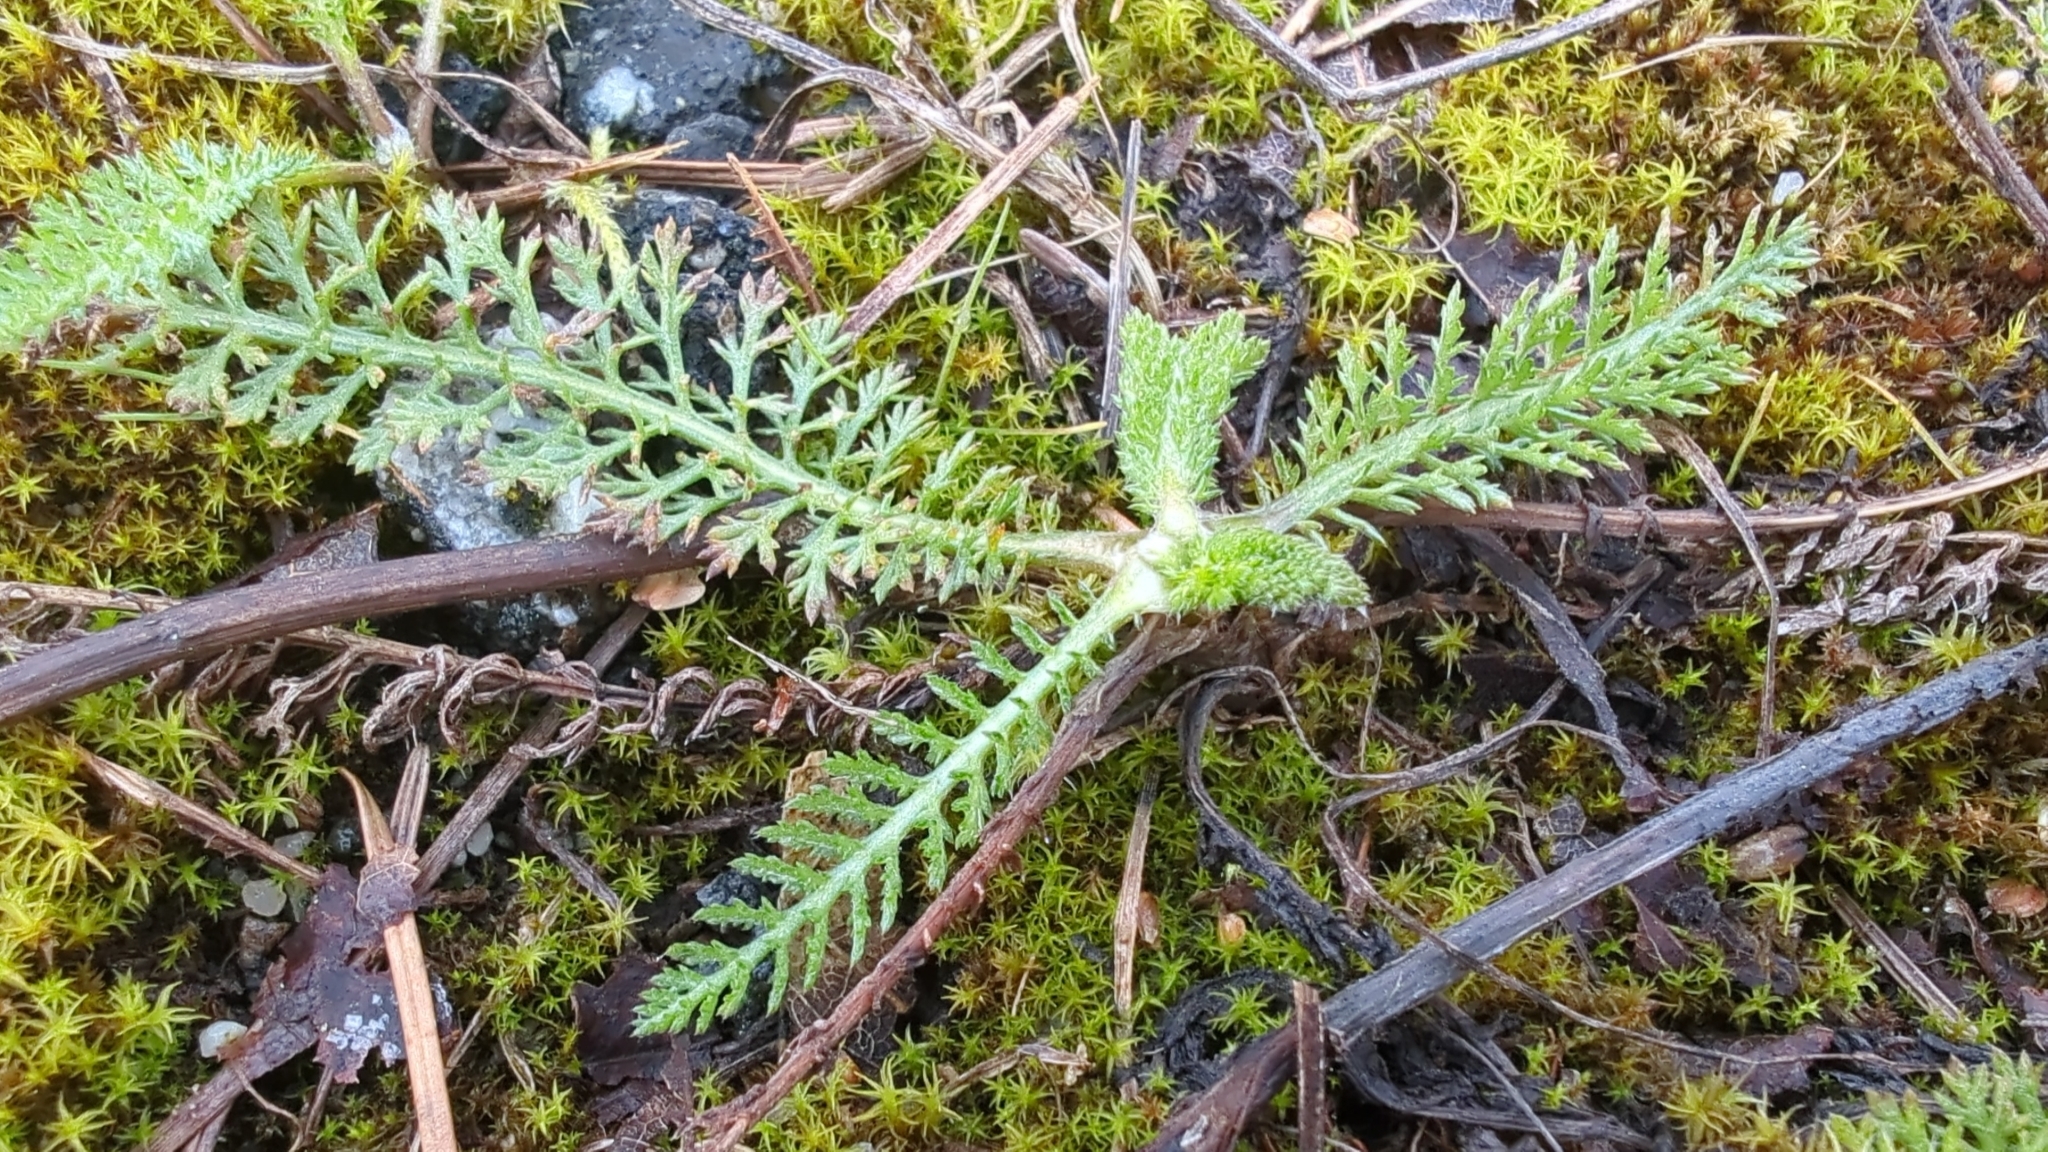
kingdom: Plantae
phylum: Tracheophyta
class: Magnoliopsida
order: Asterales
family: Asteraceae
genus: Achillea
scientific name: Achillea millefolium
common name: Yarrow
